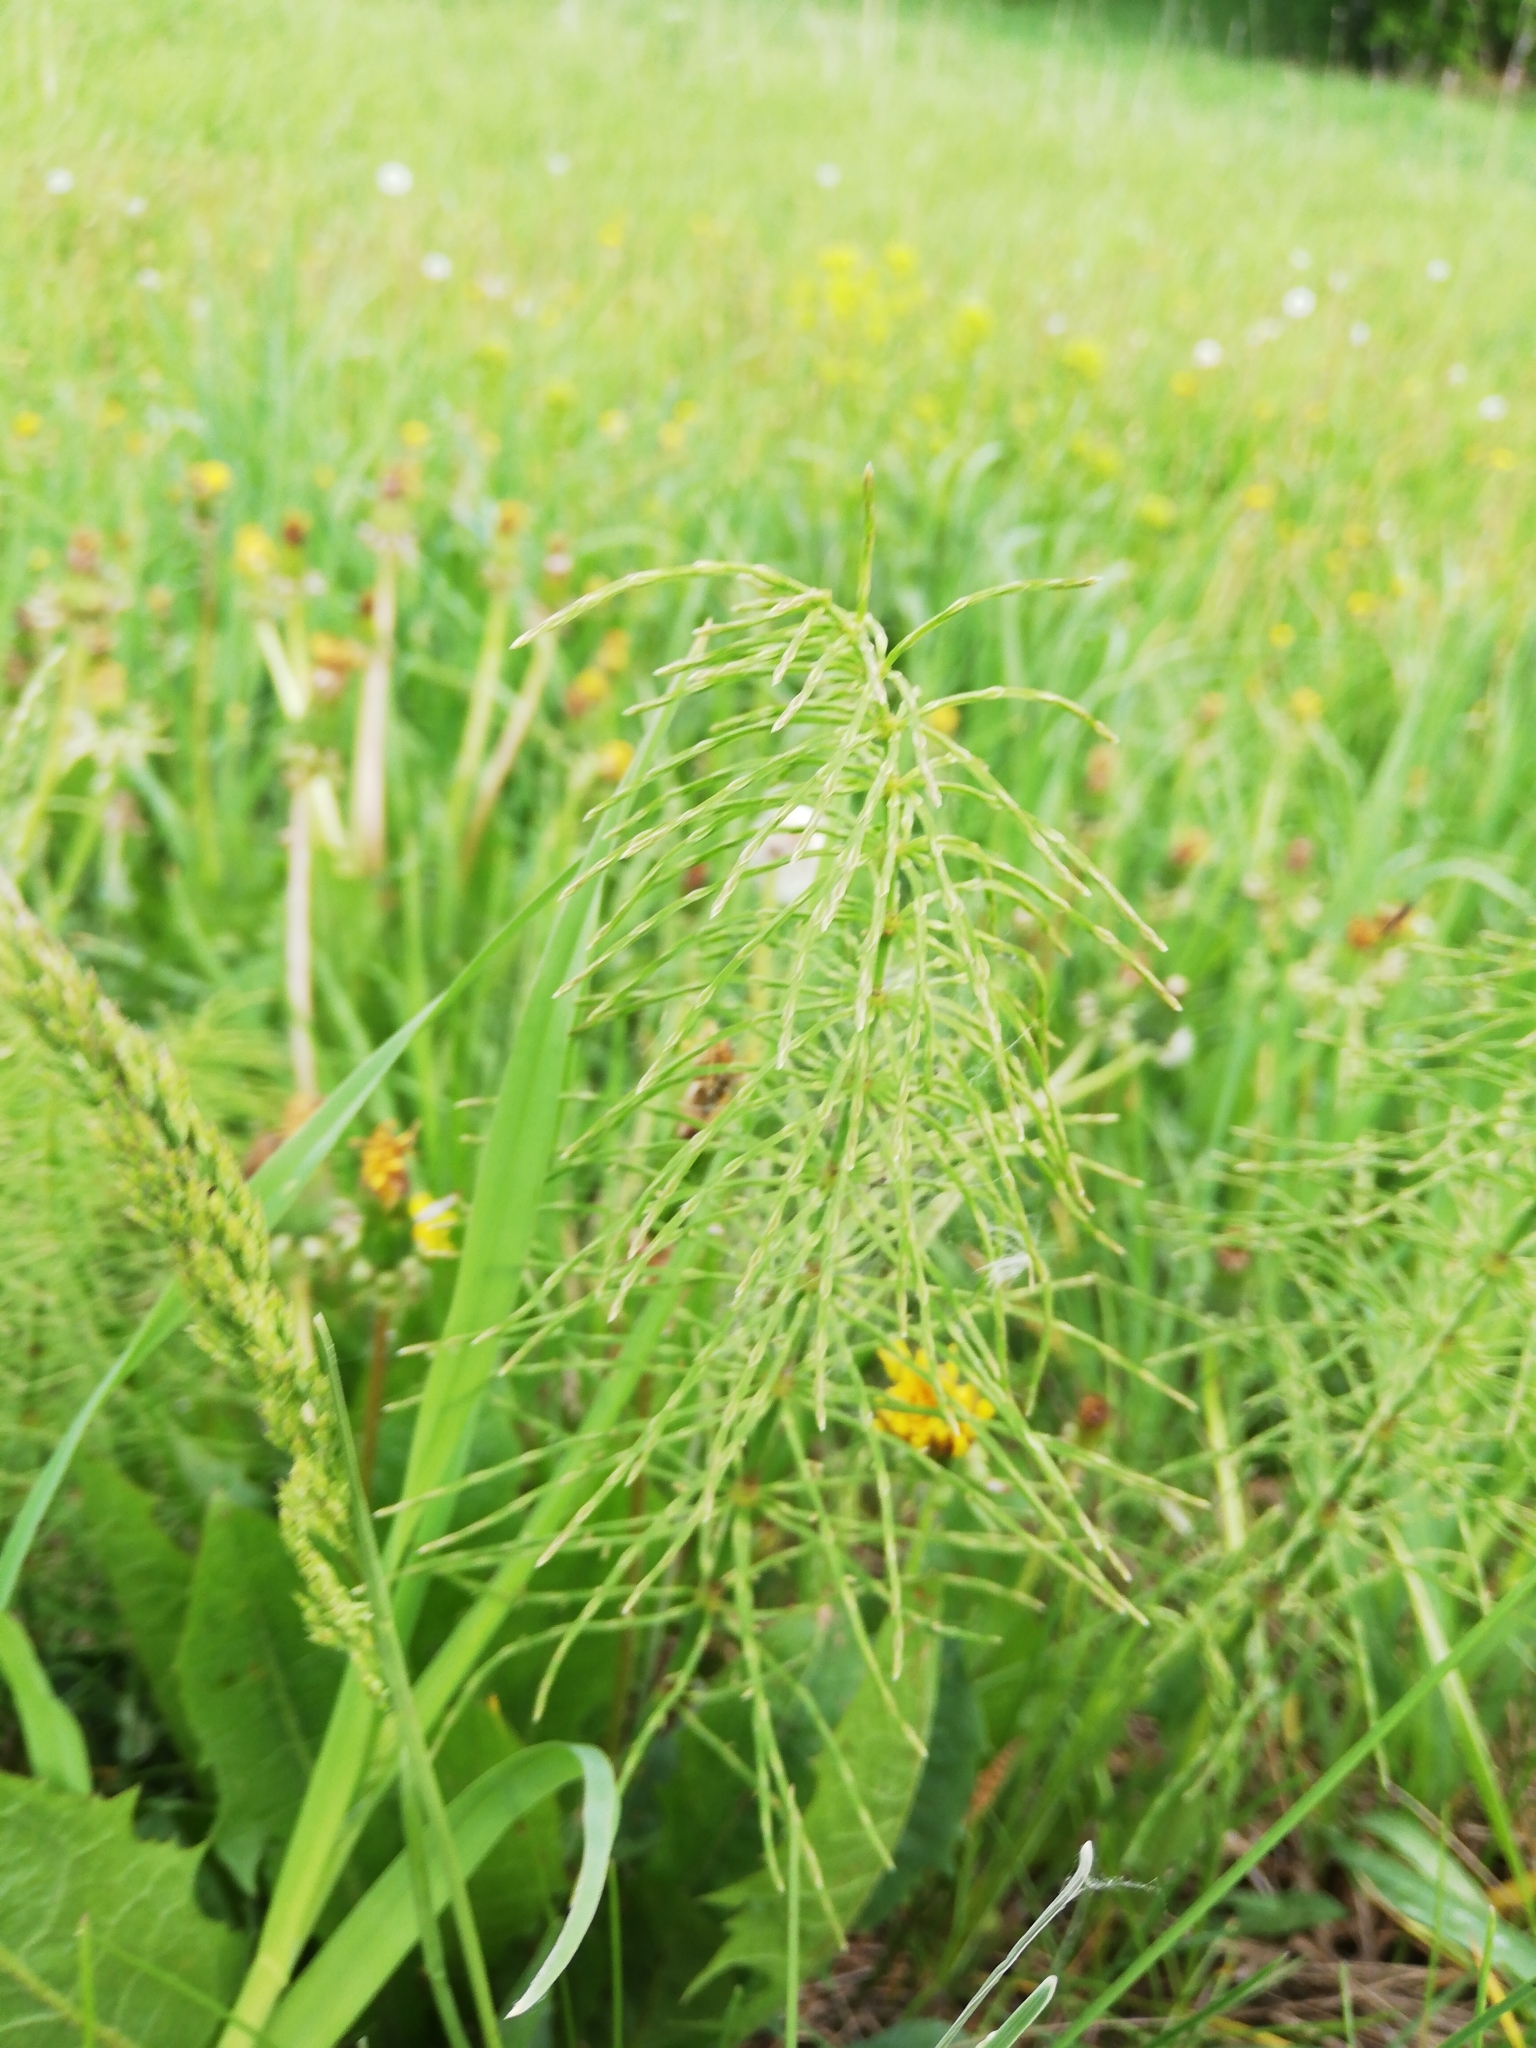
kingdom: Plantae
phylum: Tracheophyta
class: Polypodiopsida
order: Equisetales
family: Equisetaceae
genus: Equisetum
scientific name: Equisetum pratense
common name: Meadow horsetail
